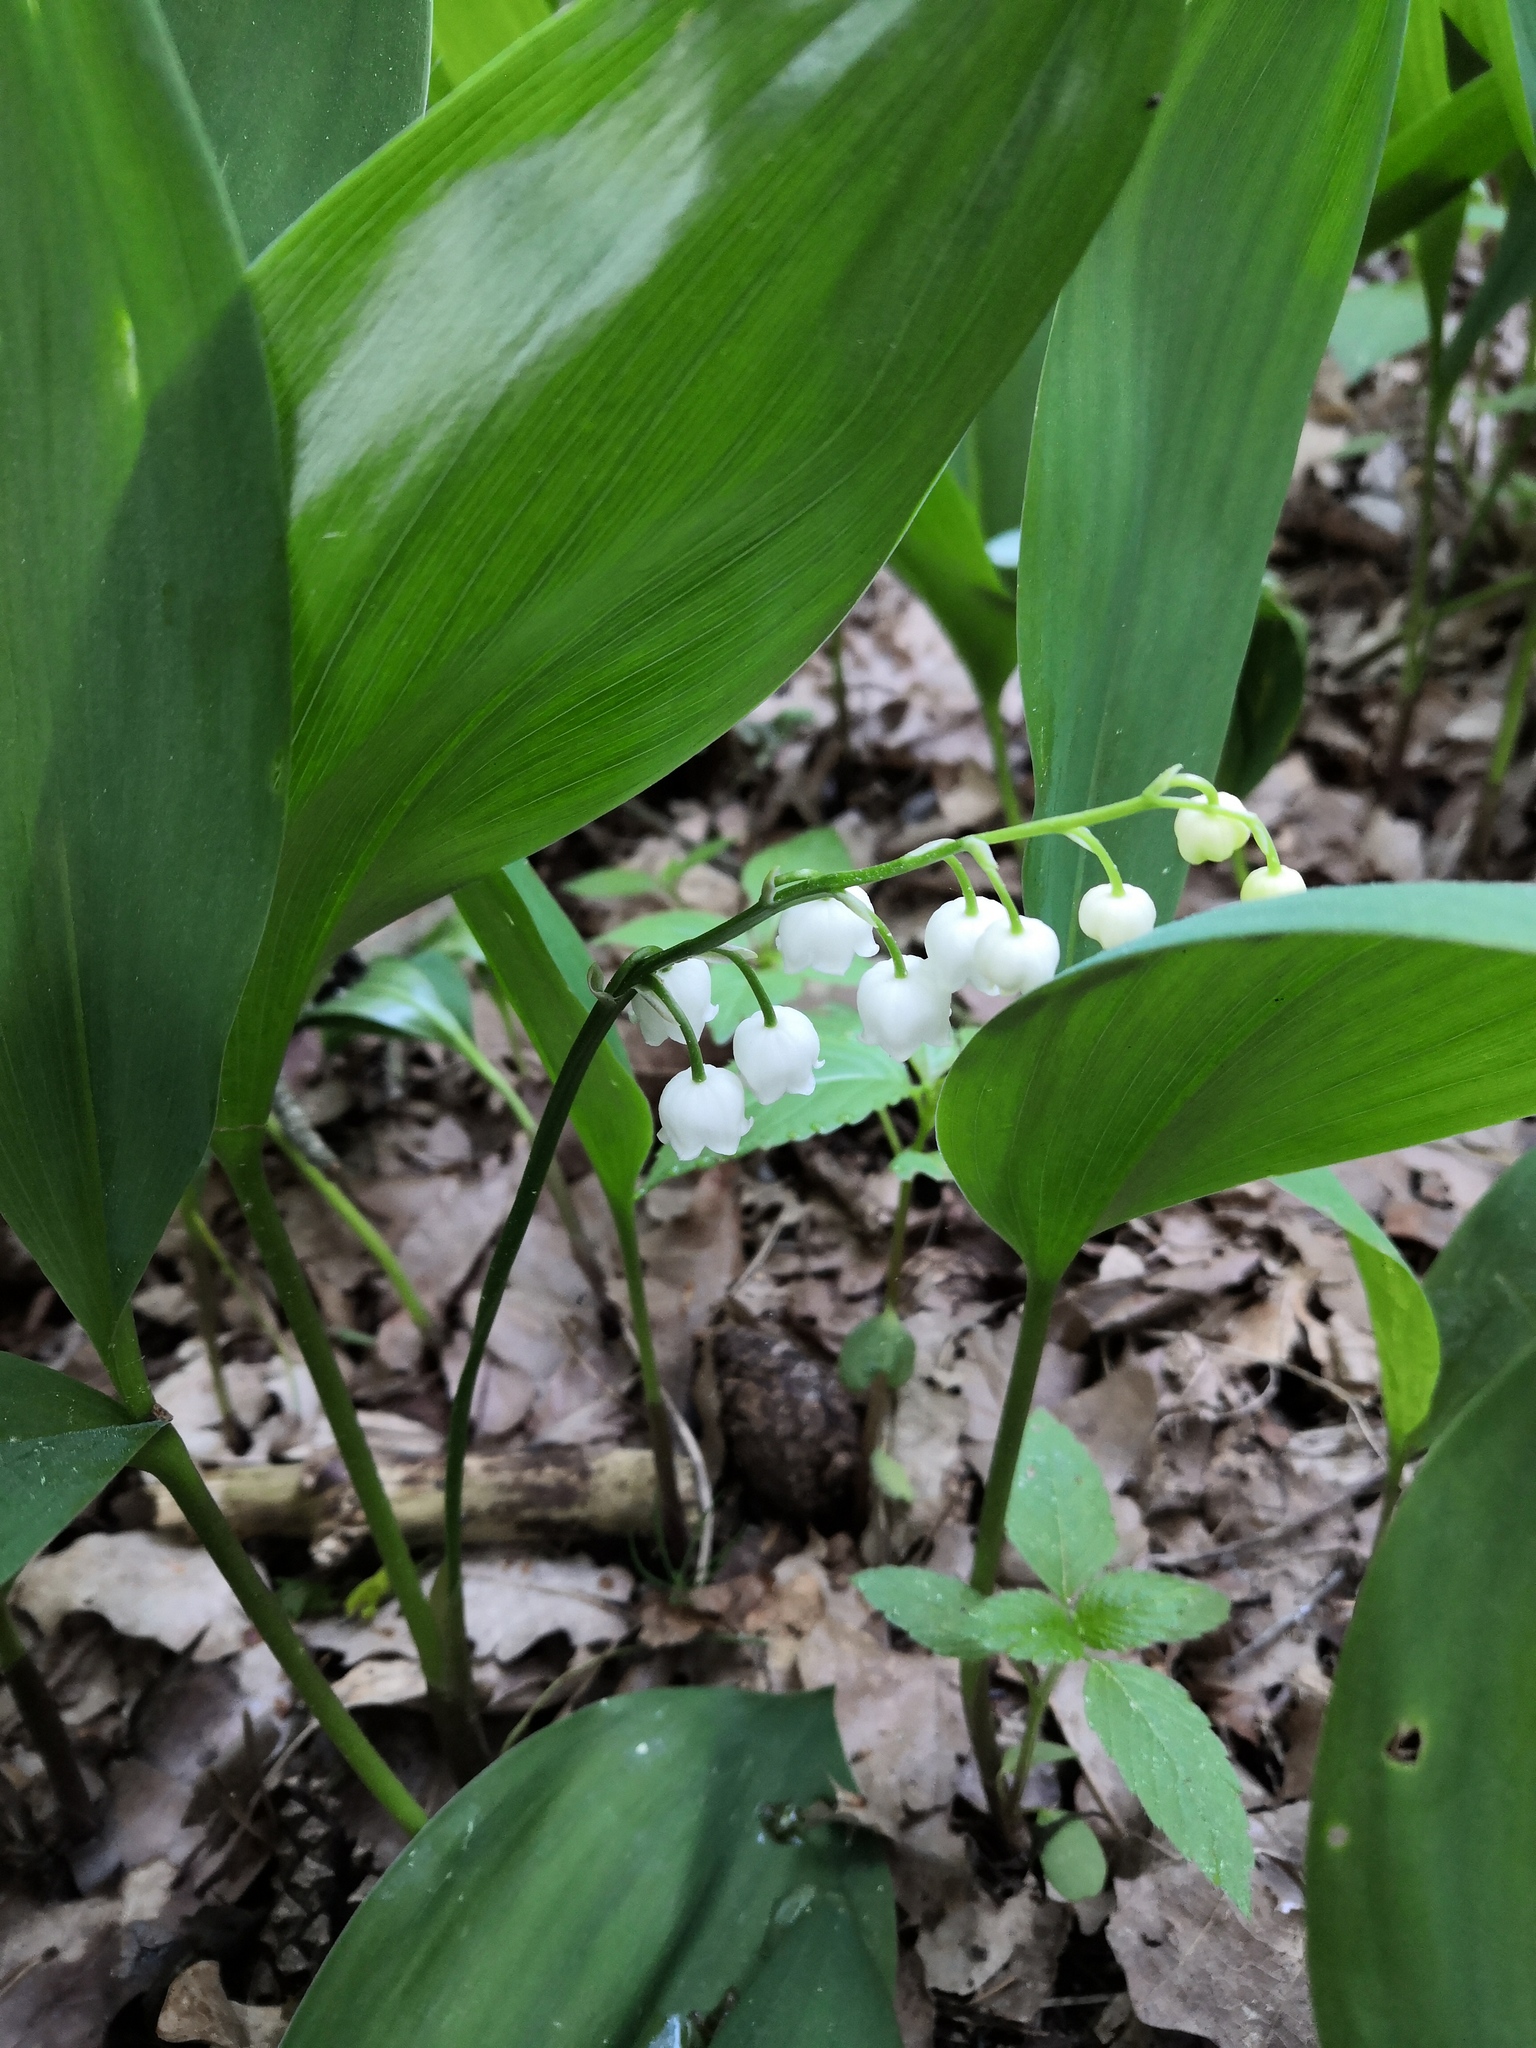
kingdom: Plantae
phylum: Tracheophyta
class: Liliopsida
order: Asparagales
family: Asparagaceae
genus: Convallaria
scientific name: Convallaria majalis
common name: Lily-of-the-valley
